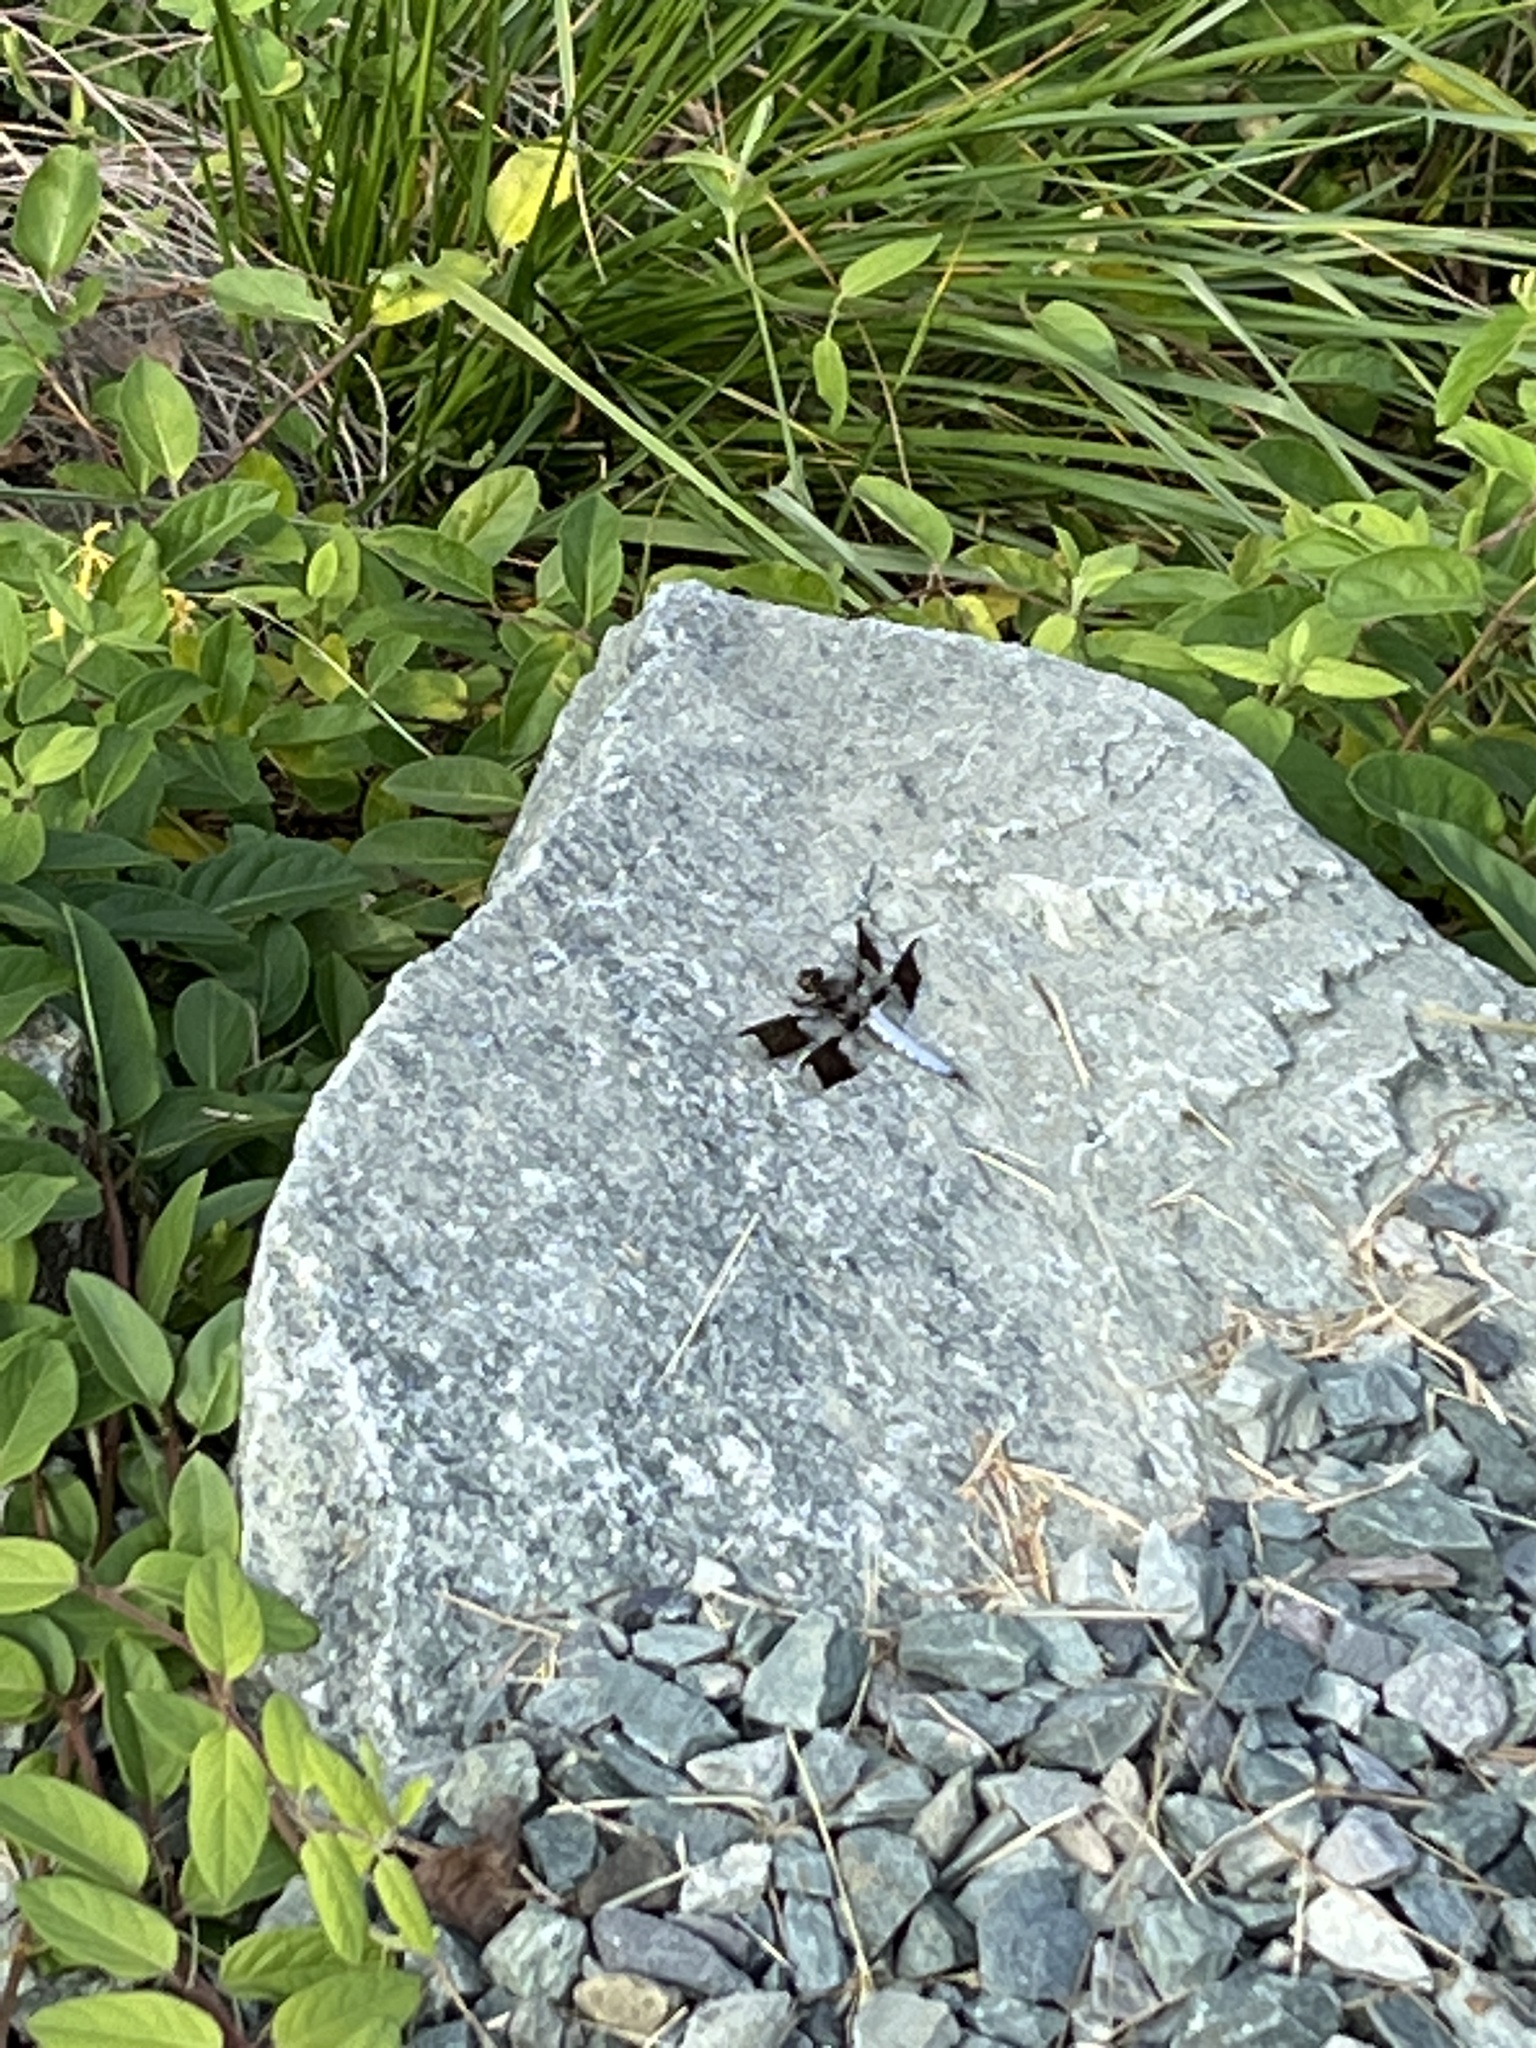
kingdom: Animalia
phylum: Arthropoda
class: Insecta
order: Odonata
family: Libellulidae
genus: Plathemis
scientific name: Plathemis lydia
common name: Common whitetail
